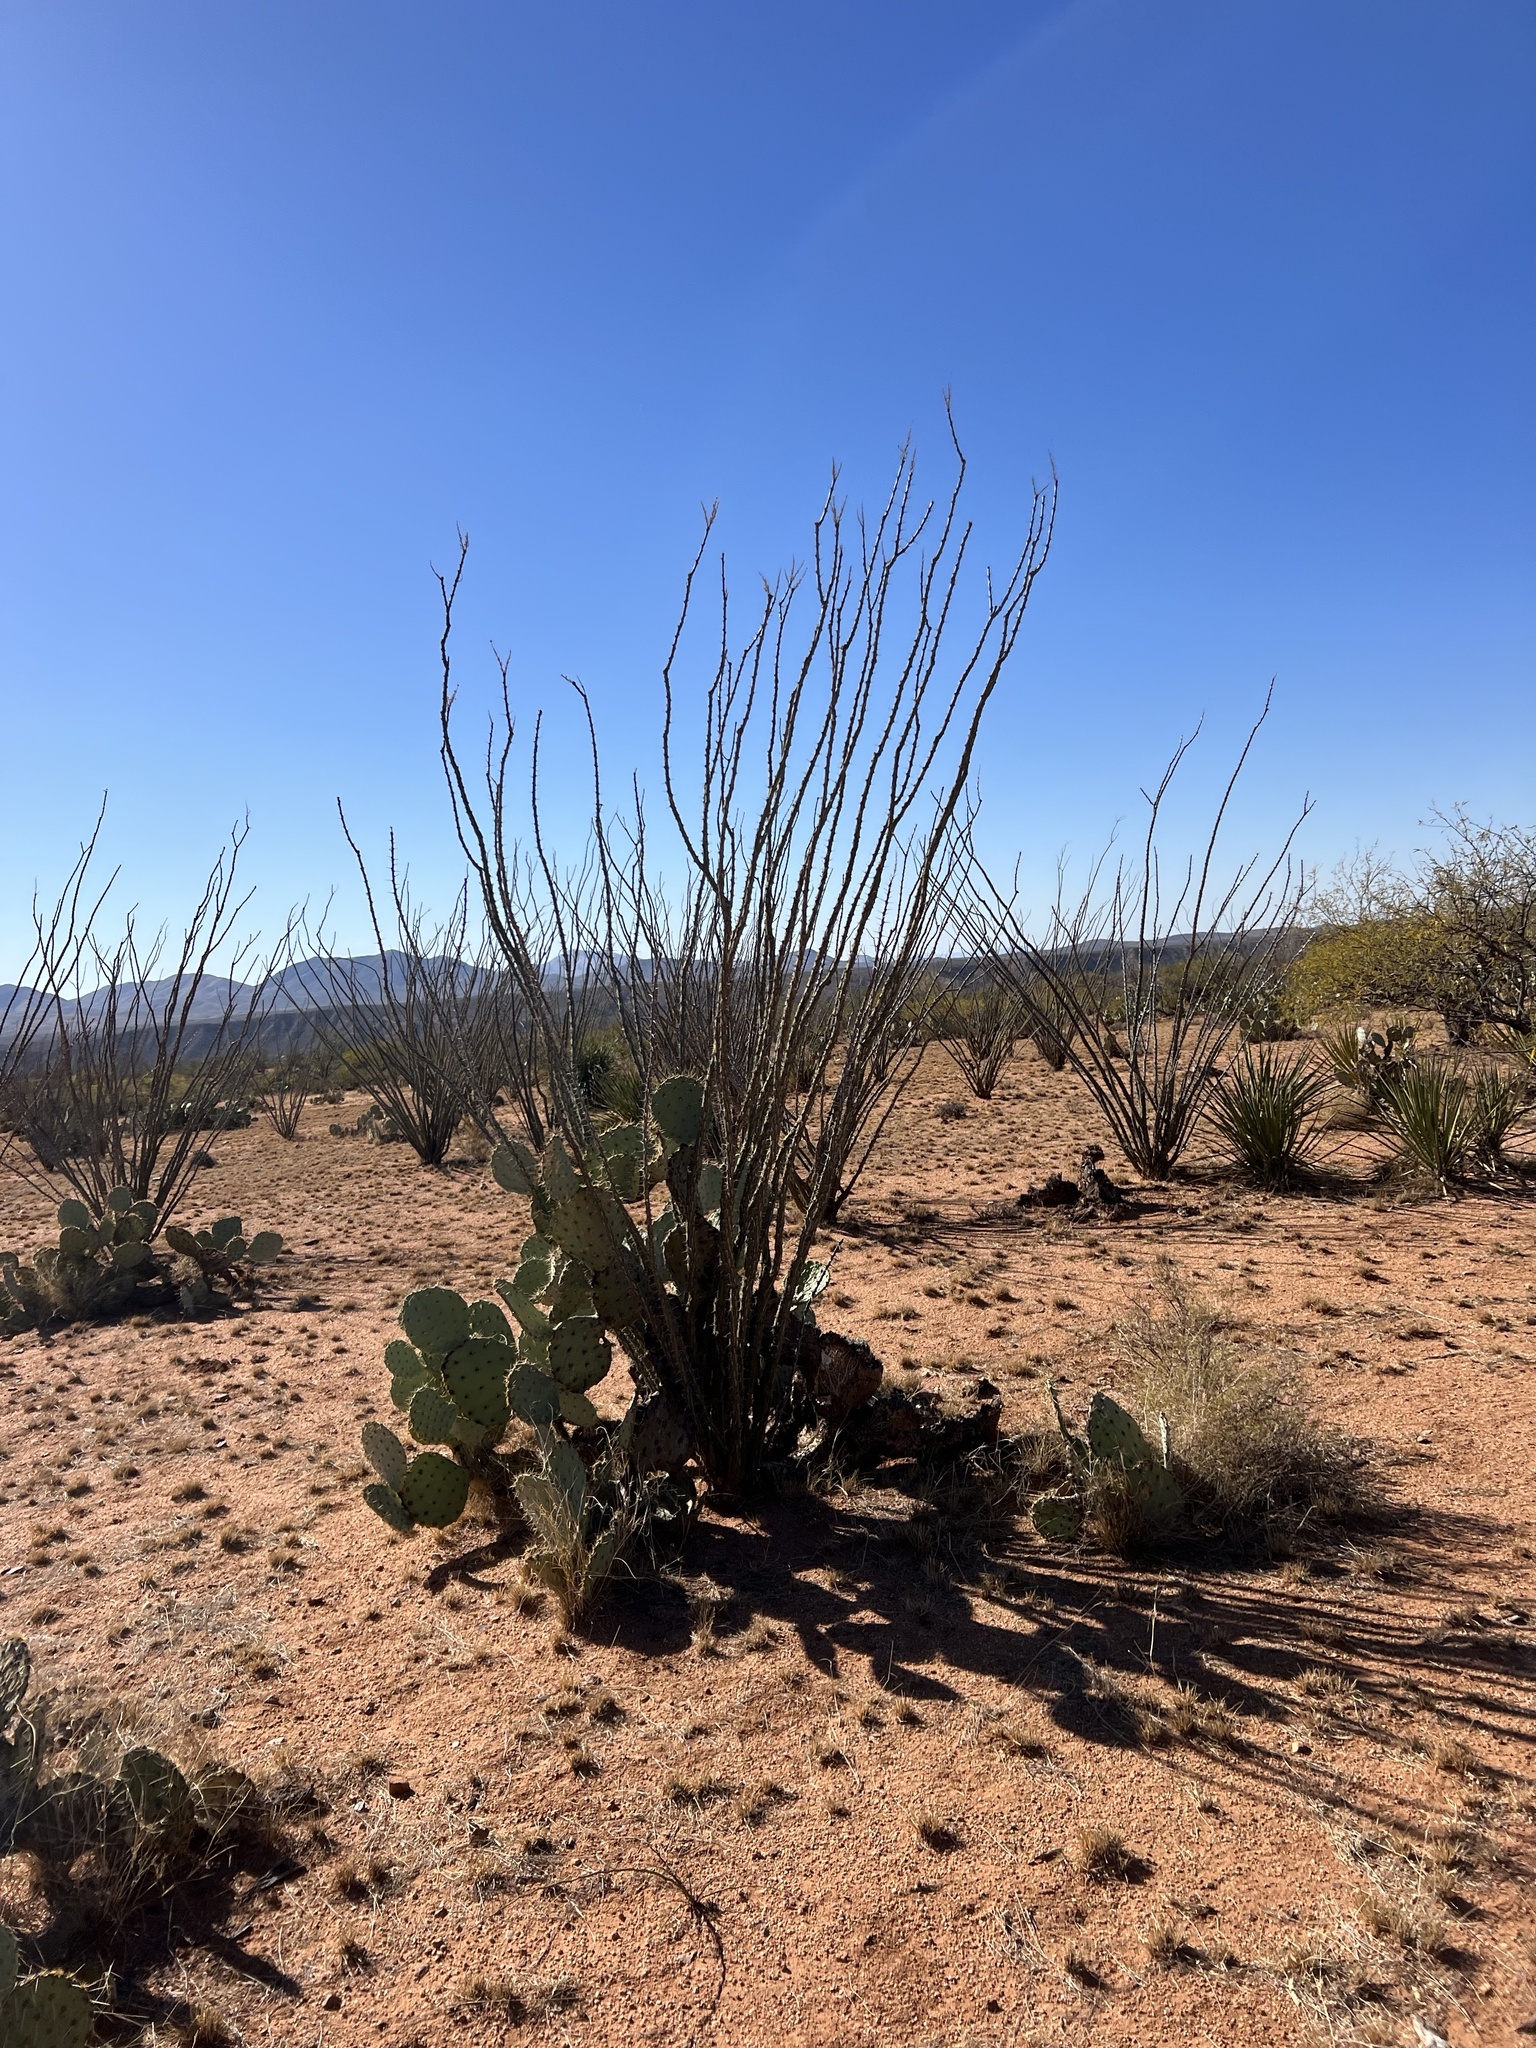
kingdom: Plantae
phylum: Tracheophyta
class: Magnoliopsida
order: Ericales
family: Fouquieriaceae
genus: Fouquieria
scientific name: Fouquieria splendens
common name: Vine-cactus
